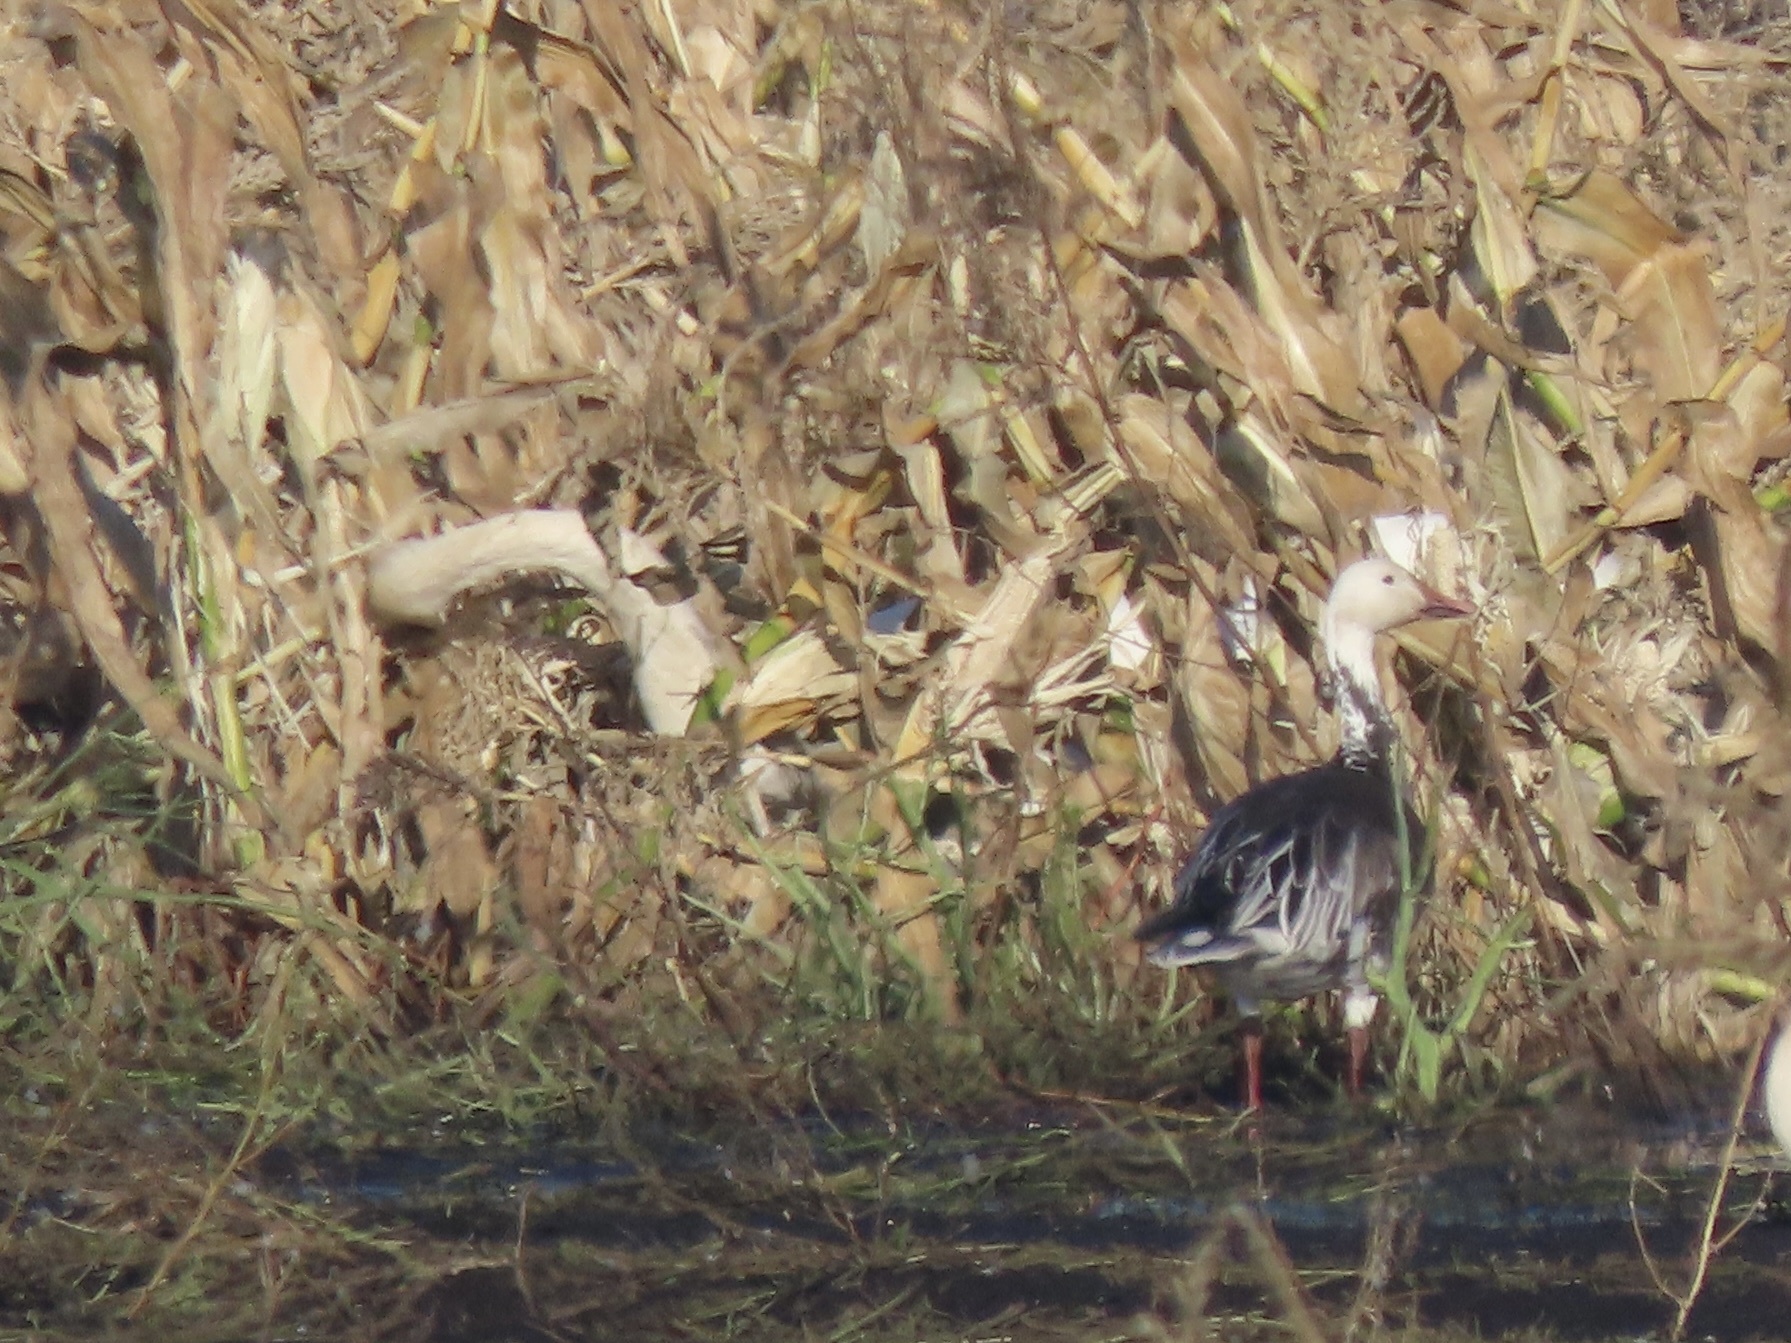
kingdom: Animalia
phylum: Chordata
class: Aves
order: Anseriformes
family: Anatidae
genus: Anser
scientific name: Anser caerulescens
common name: Snow goose
